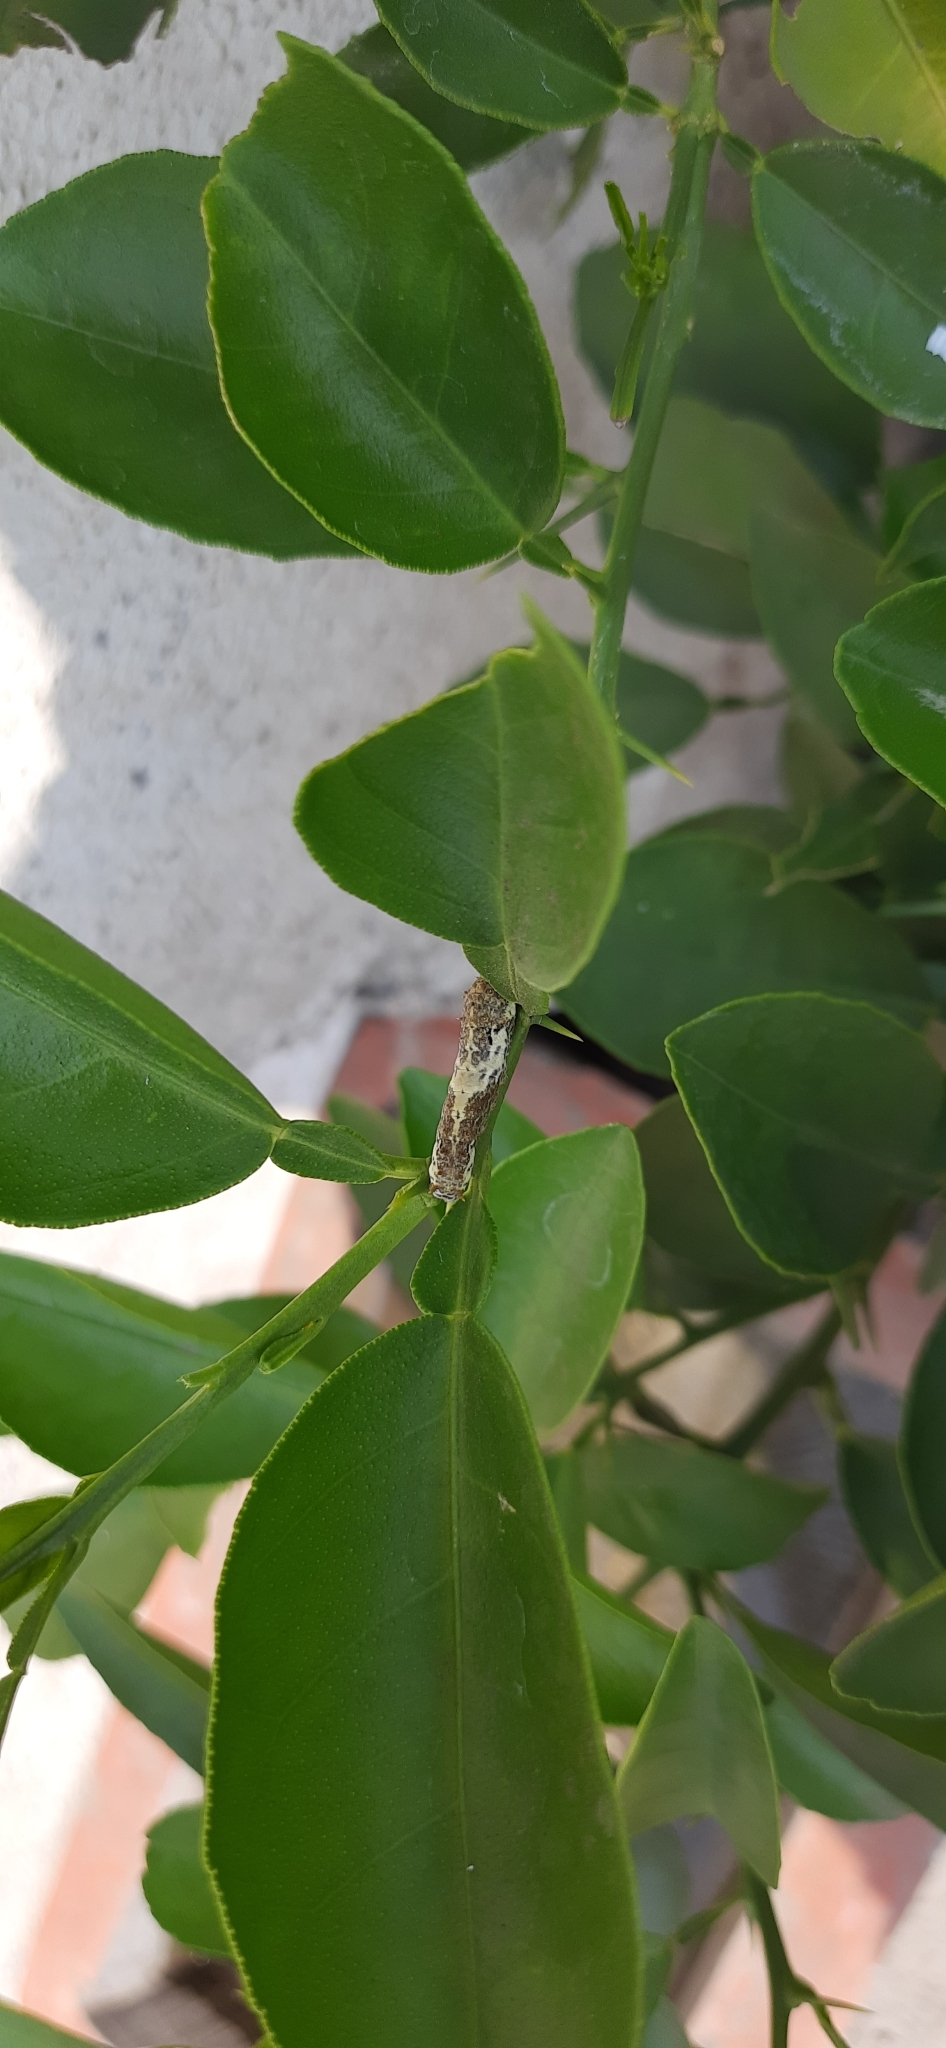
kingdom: Animalia
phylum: Arthropoda
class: Insecta
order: Lepidoptera
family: Papilionidae
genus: Papilio
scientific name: Papilio polytes
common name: Common mormon
